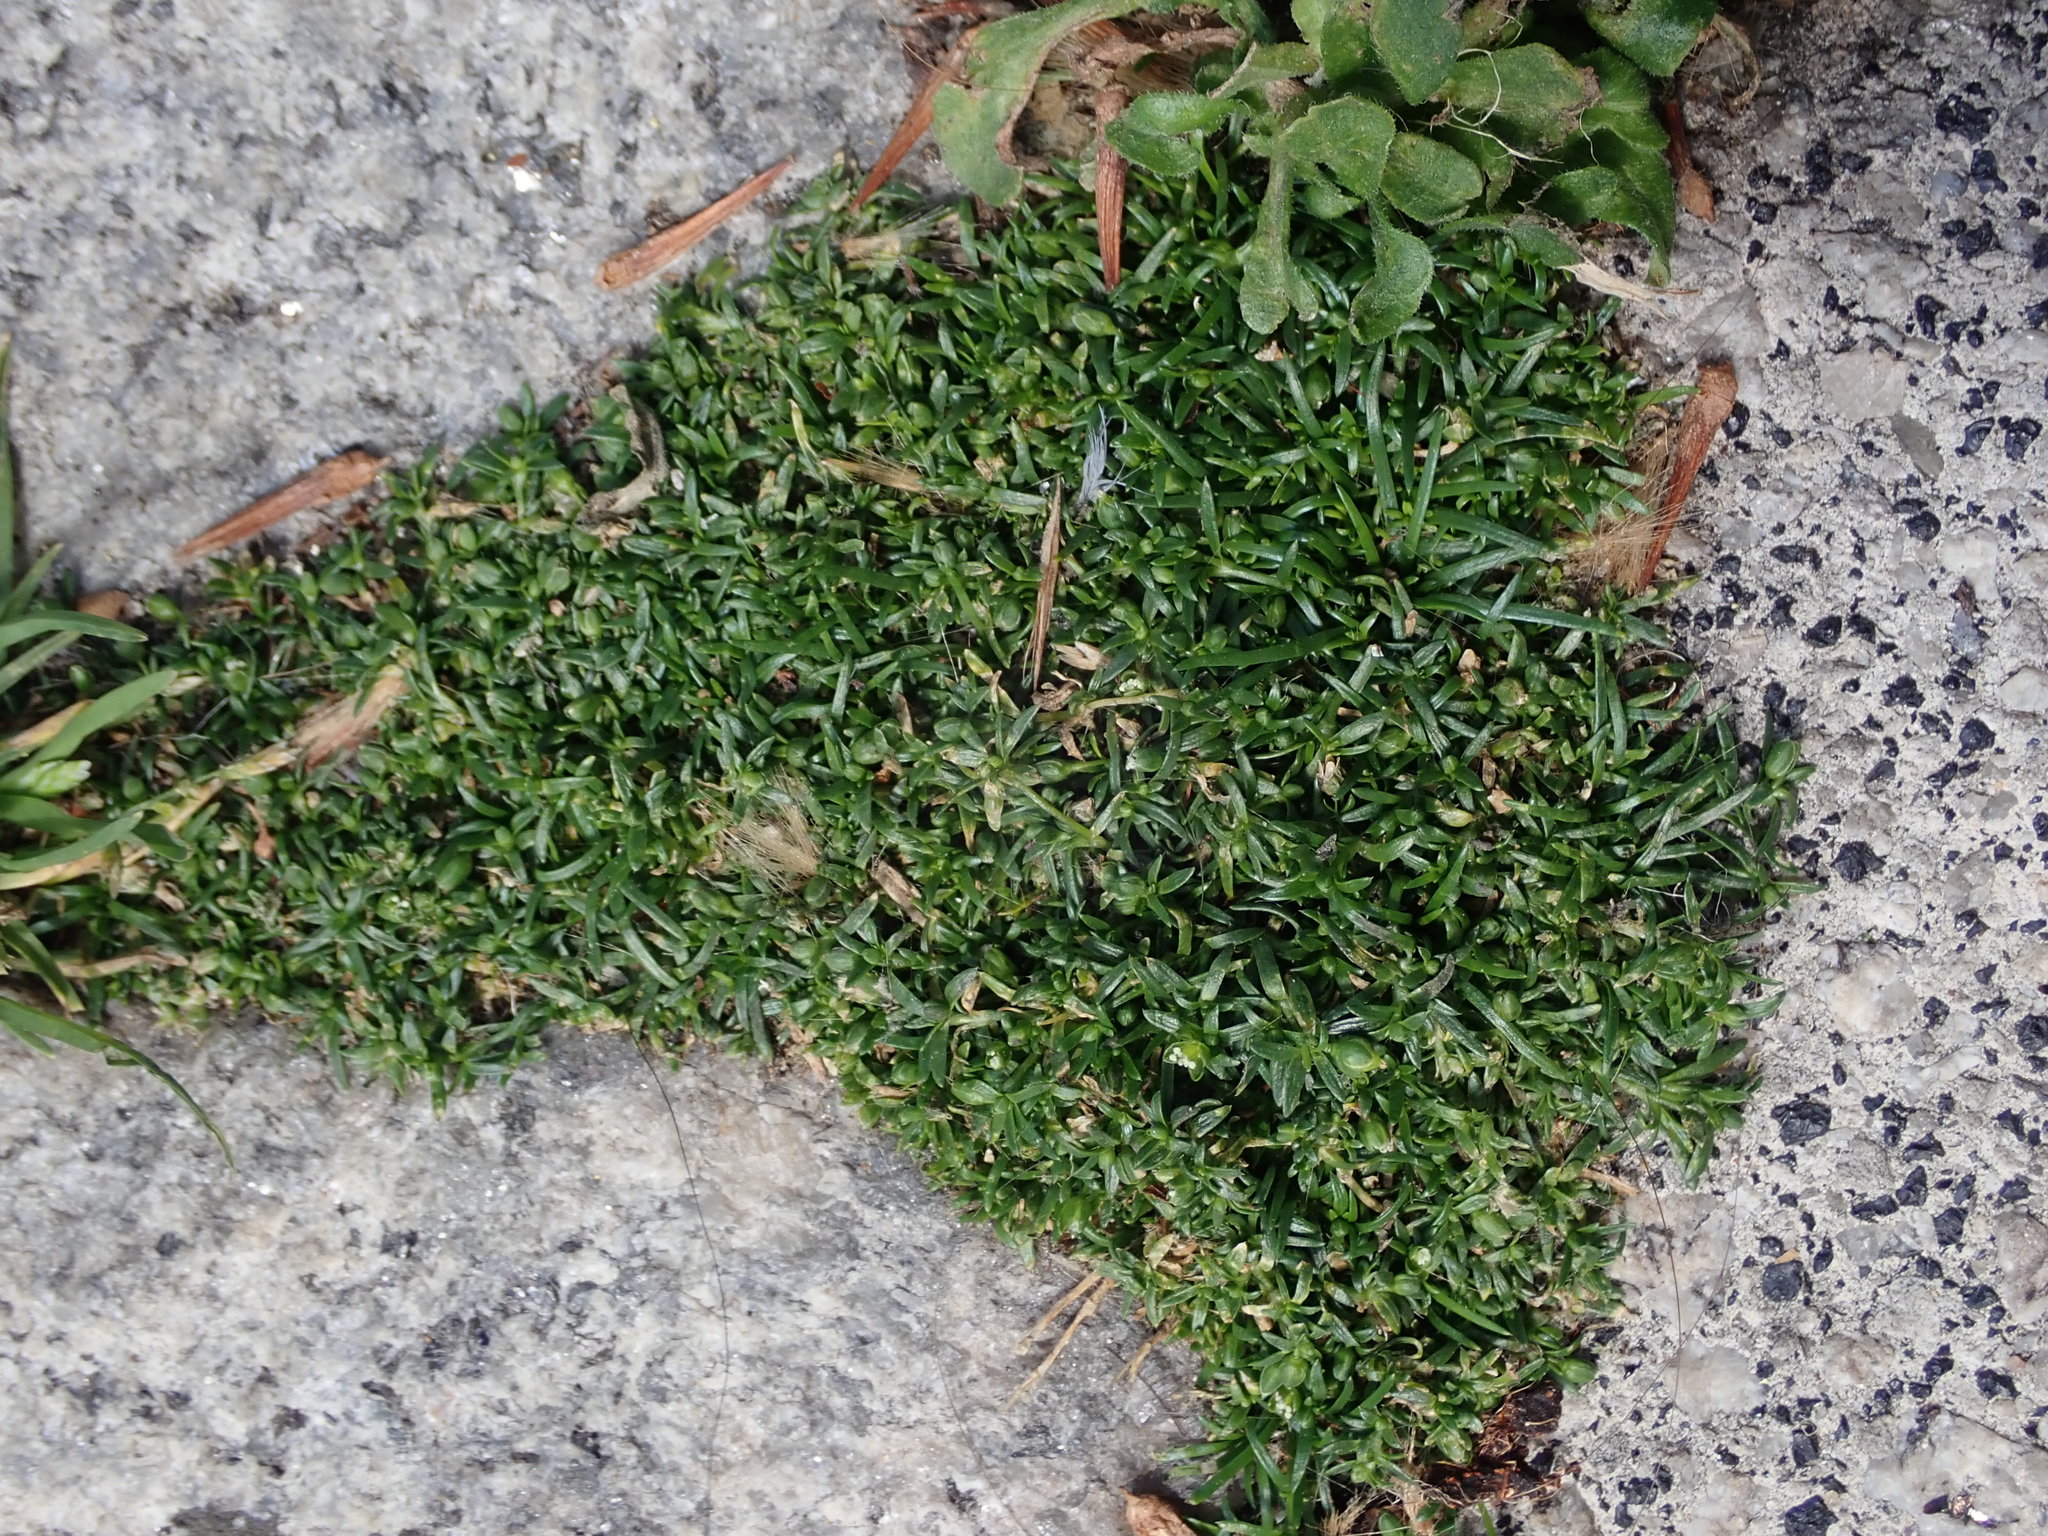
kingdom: Plantae
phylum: Tracheophyta
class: Magnoliopsida
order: Caryophyllales
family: Caryophyllaceae
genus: Sagina
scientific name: Sagina procumbens
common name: Procumbent pearlwort
